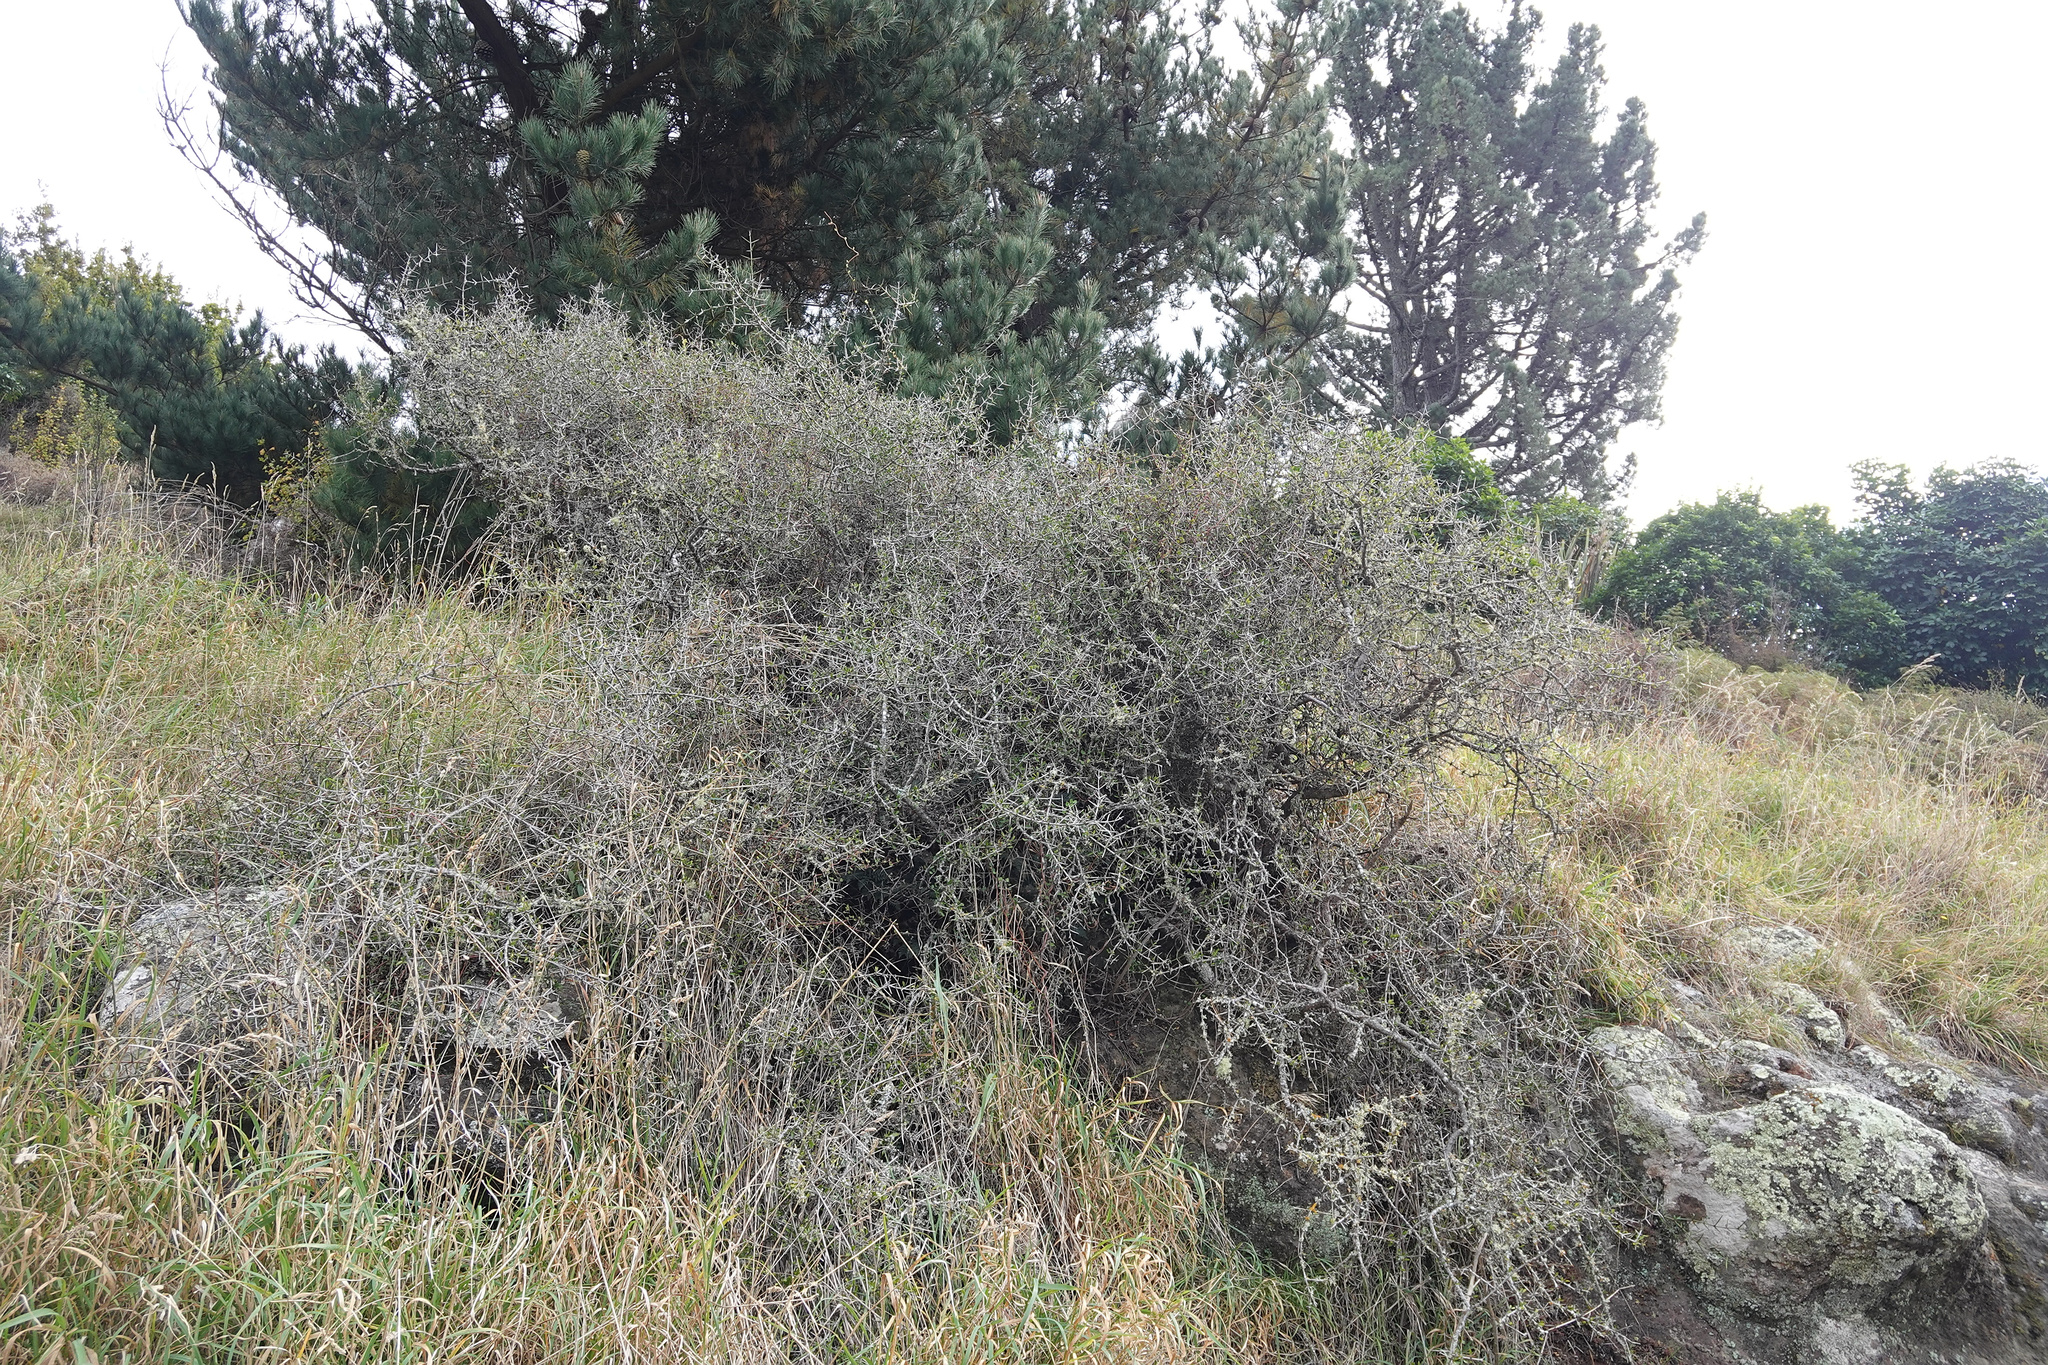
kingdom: Plantae
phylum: Tracheophyta
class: Magnoliopsida
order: Rosales
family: Rhamnaceae
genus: Discaria
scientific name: Discaria toumatou
